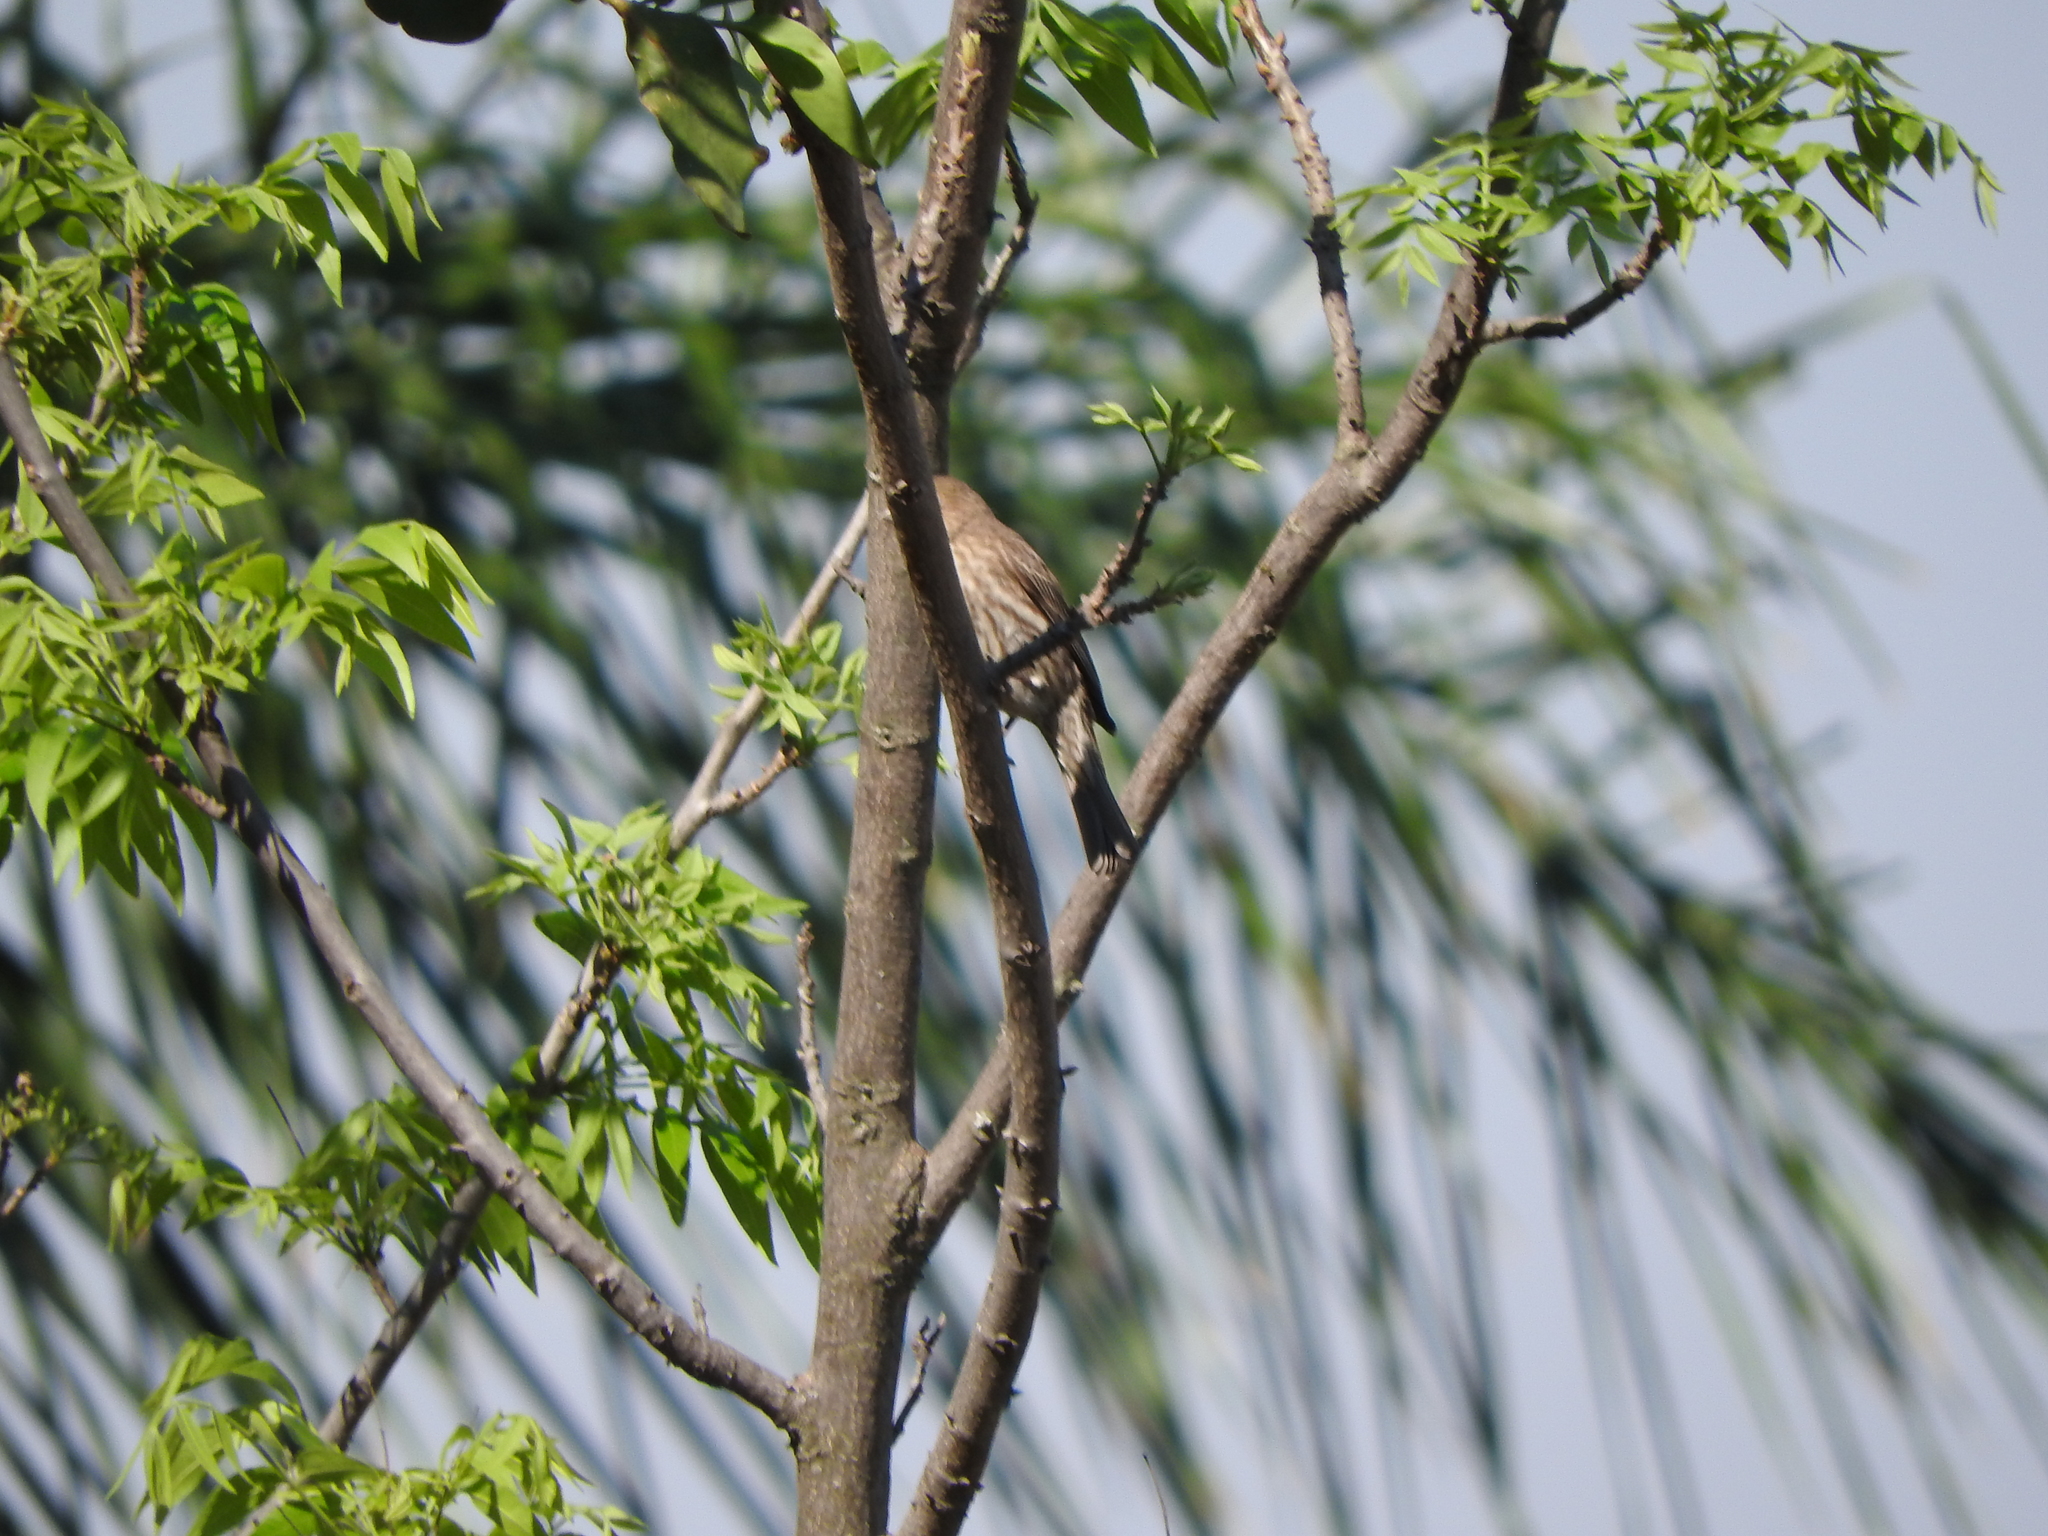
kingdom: Animalia
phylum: Chordata
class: Aves
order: Passeriformes
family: Fringillidae
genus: Haemorhous
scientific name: Haemorhous mexicanus
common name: House finch
